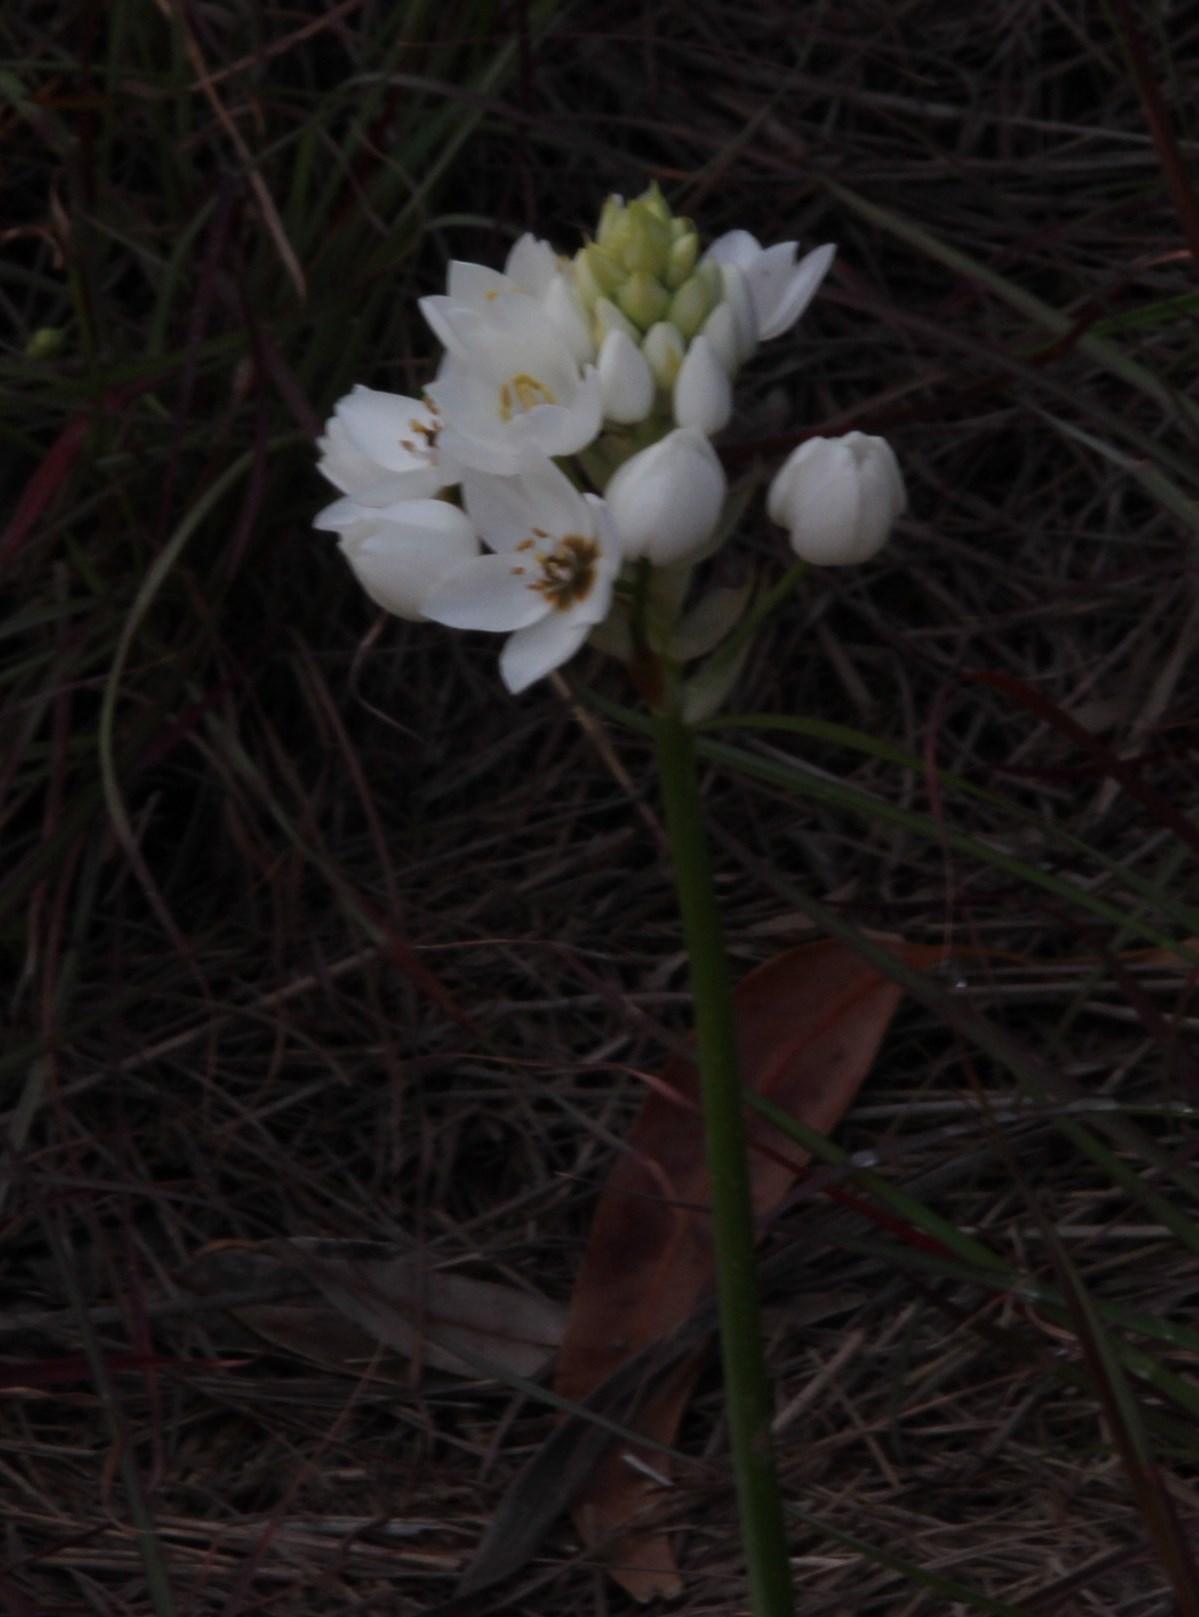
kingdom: Plantae
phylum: Tracheophyta
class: Liliopsida
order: Asparagales
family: Asparagaceae
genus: Ornithogalum
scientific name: Ornithogalum thyrsoides
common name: Chincherinchee
